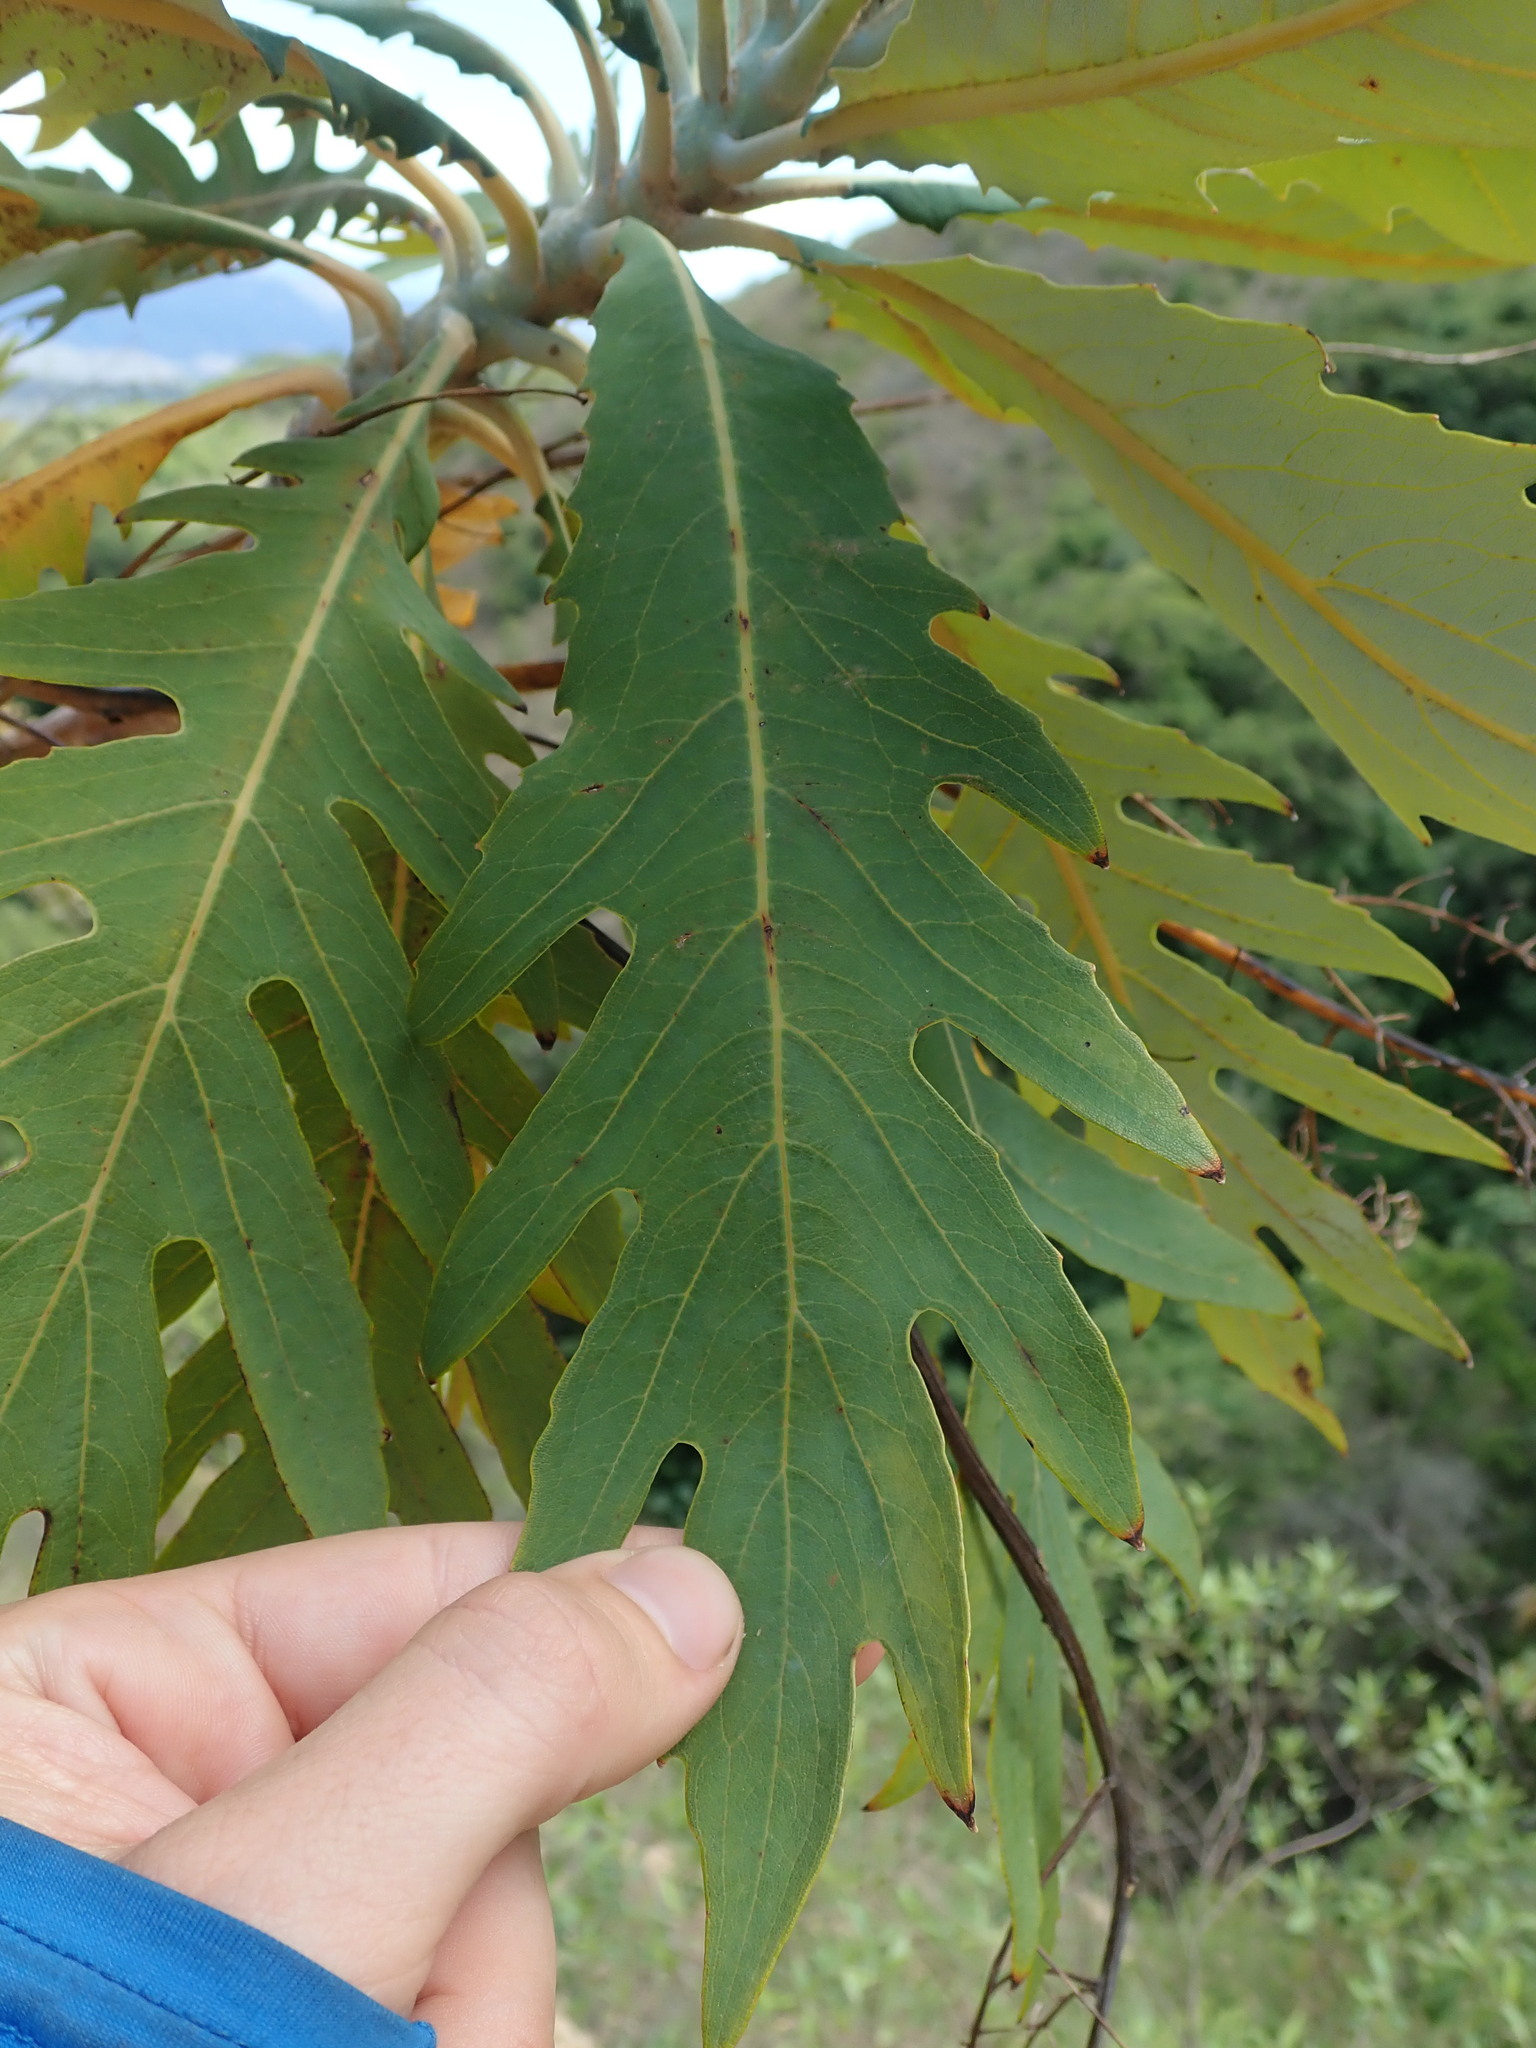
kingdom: Plantae
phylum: Tracheophyta
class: Magnoliopsida
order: Ranunculales
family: Papaveraceae
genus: Bocconia
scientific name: Bocconia frutescens
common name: Tree poppy
